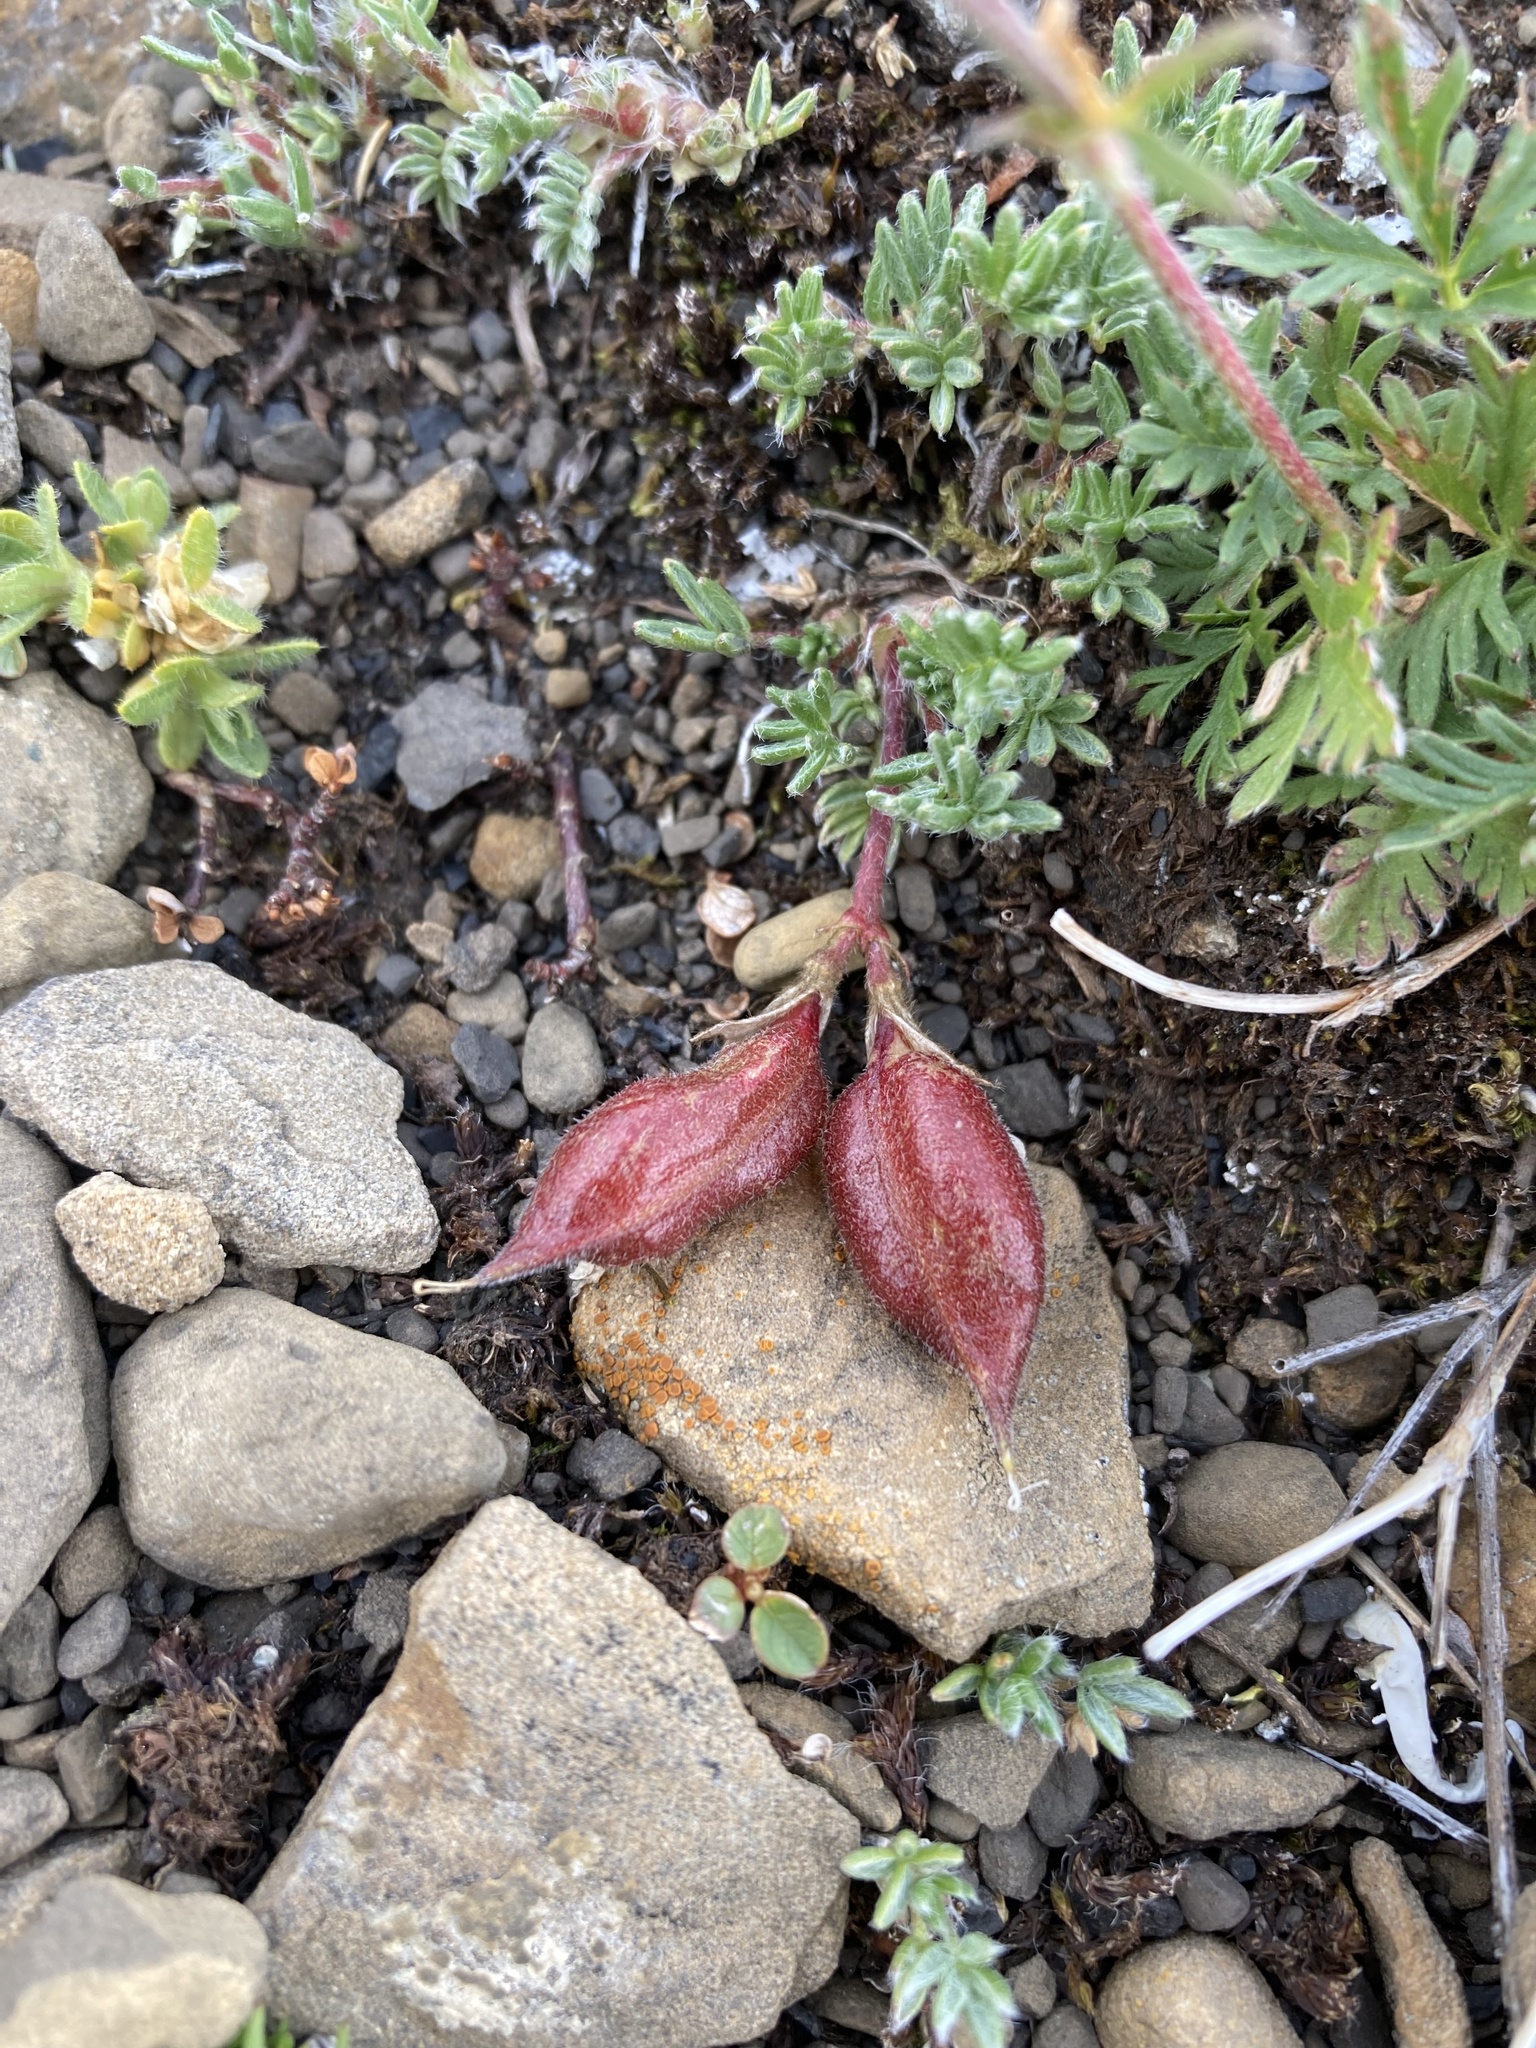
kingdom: Plantae
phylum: Tracheophyta
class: Magnoliopsida
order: Fabales
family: Fabaceae
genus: Oxytropis
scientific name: Oxytropis podocarpa
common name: Gray's oxytrope
